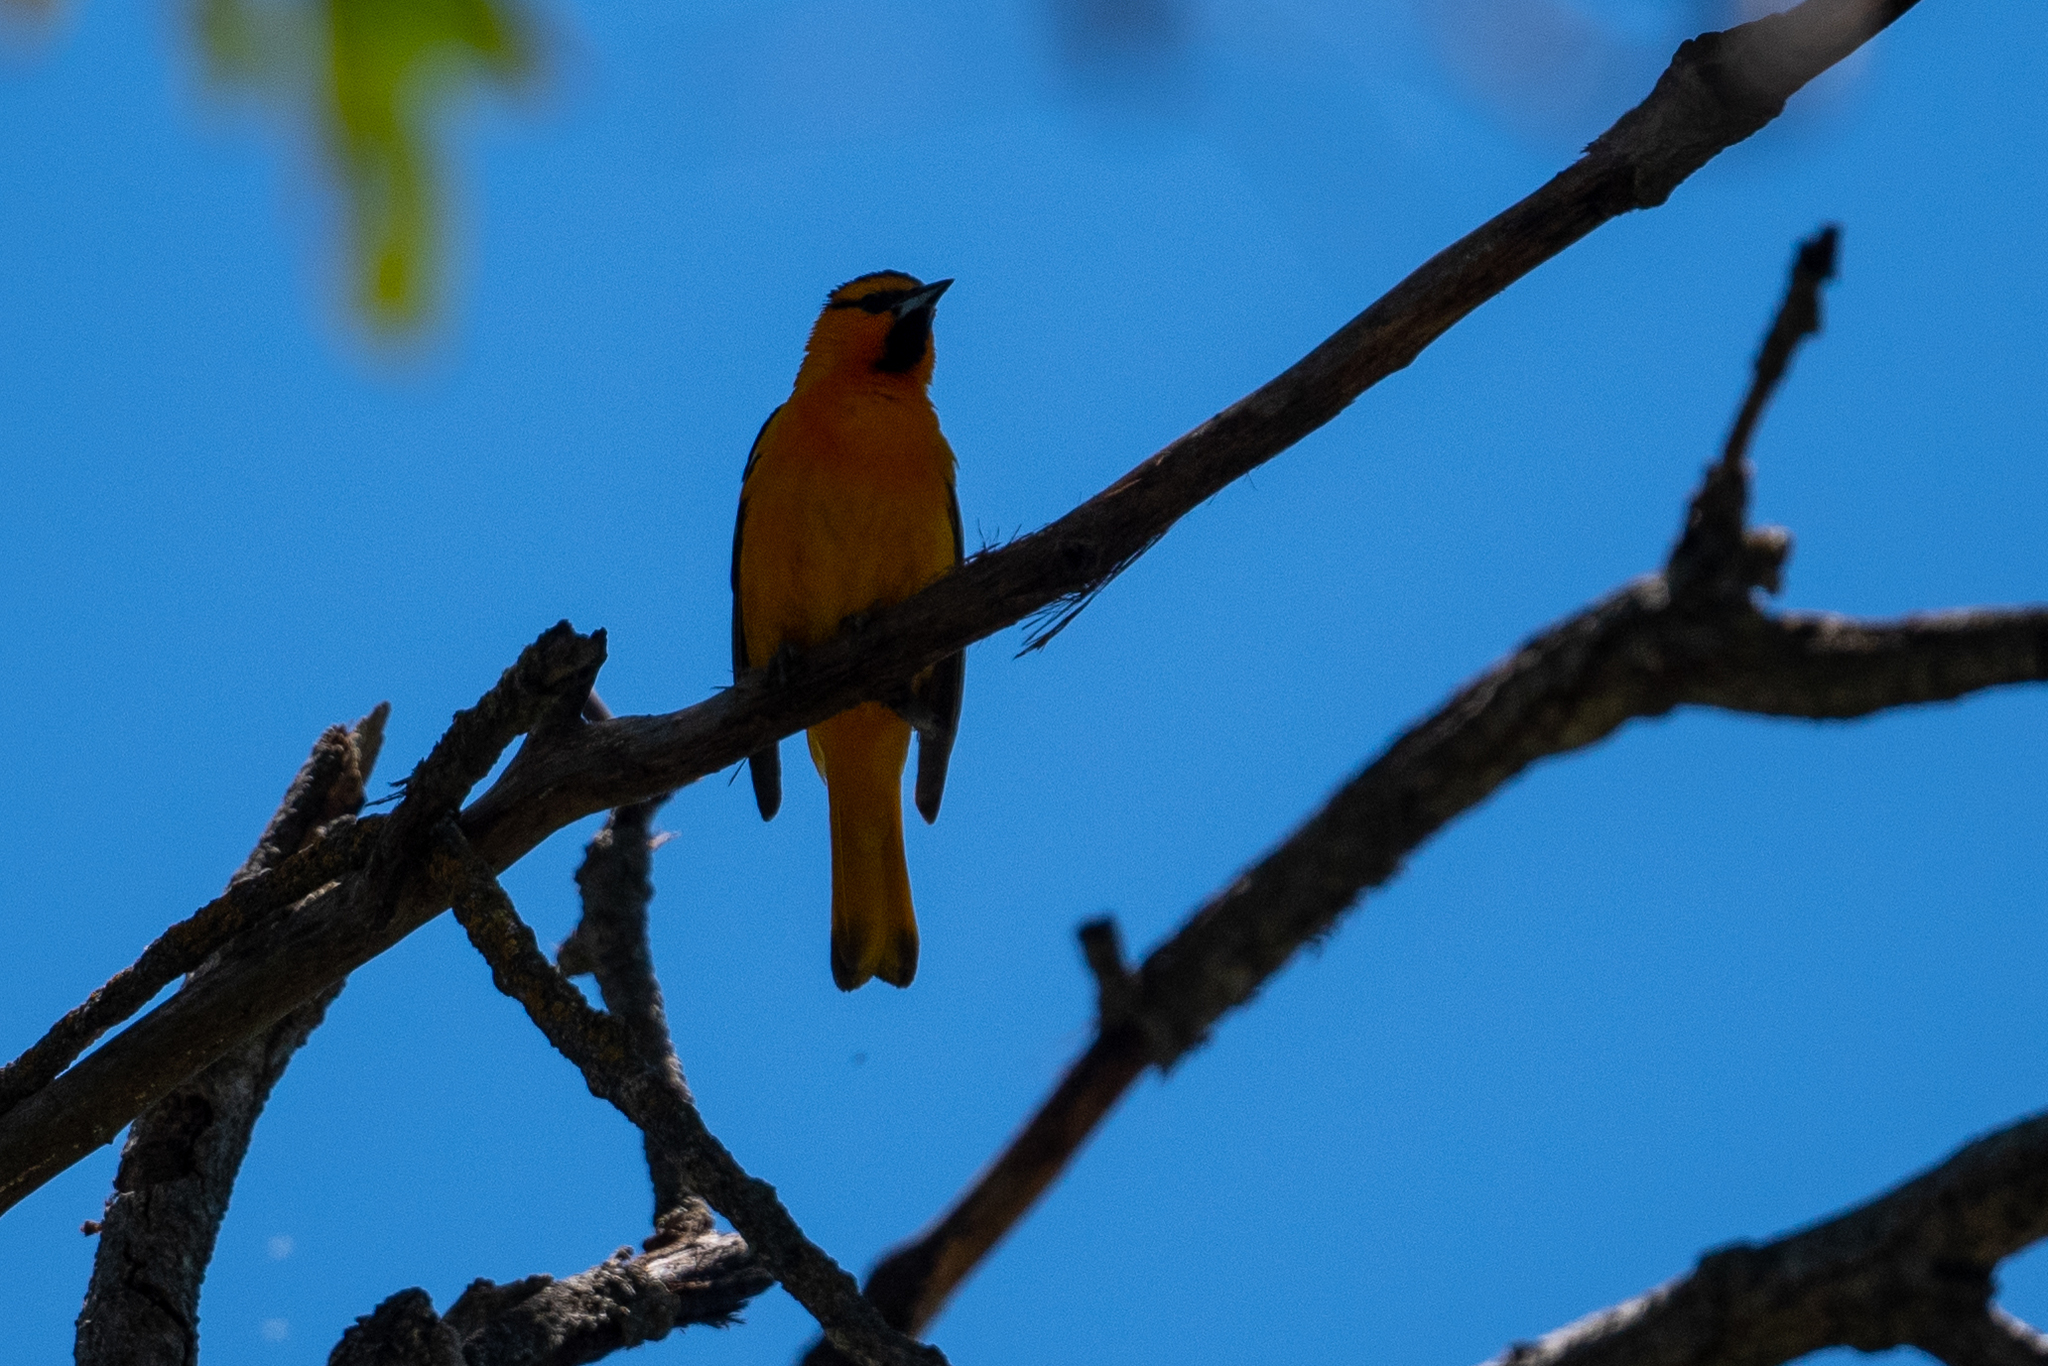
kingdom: Animalia
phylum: Chordata
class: Aves
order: Passeriformes
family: Icteridae
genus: Icterus
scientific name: Icterus bullockii
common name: Bullock's oriole
